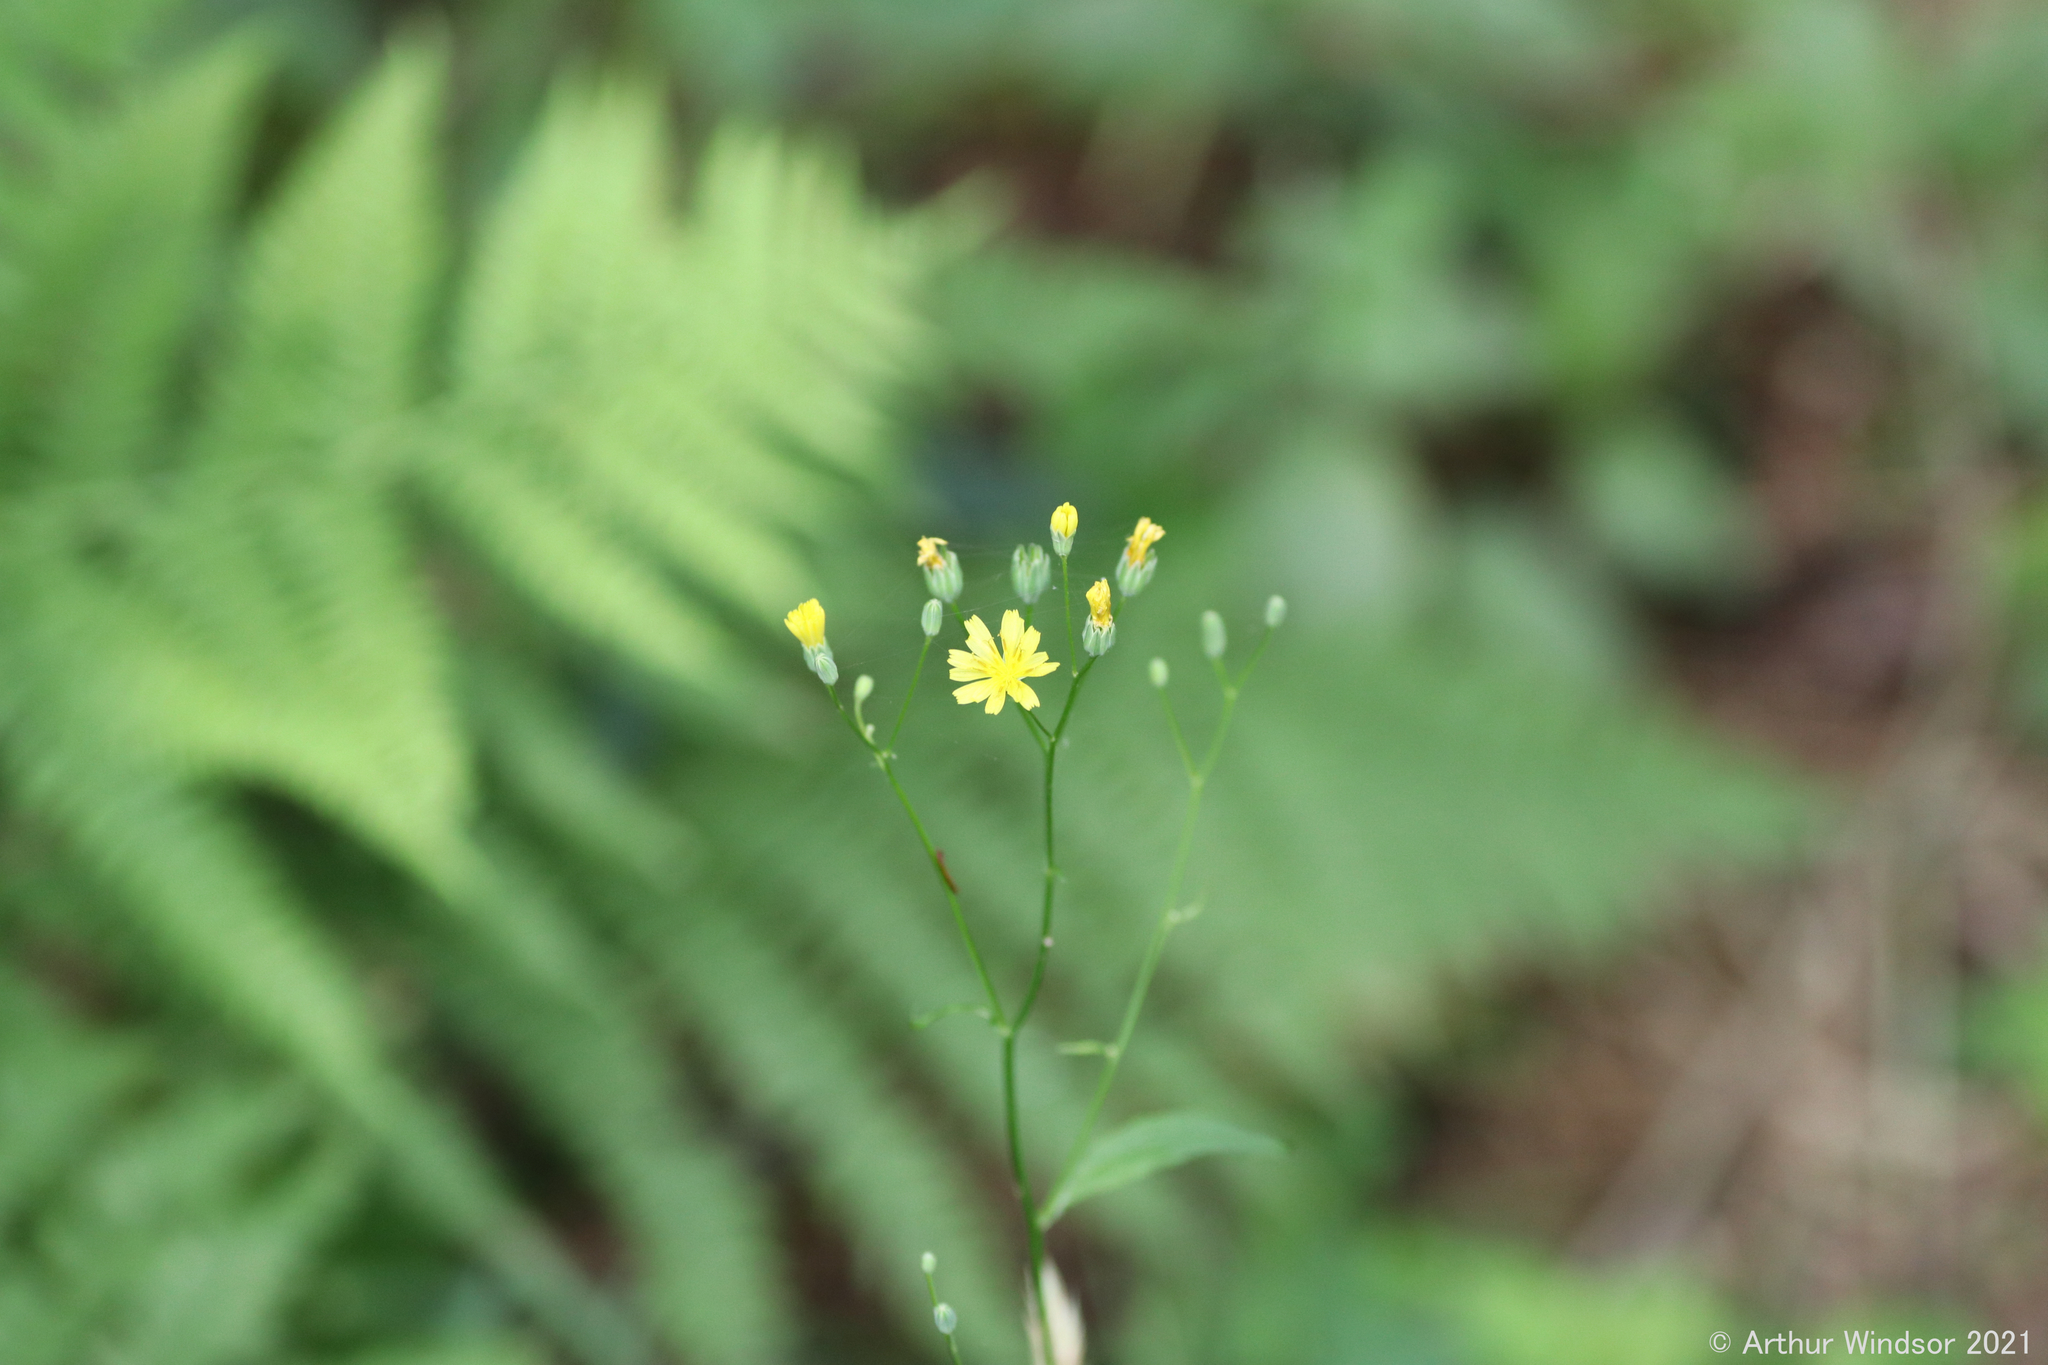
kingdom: Plantae
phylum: Tracheophyta
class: Magnoliopsida
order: Asterales
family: Asteraceae
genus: Lapsana
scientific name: Lapsana communis
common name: Nipplewort
